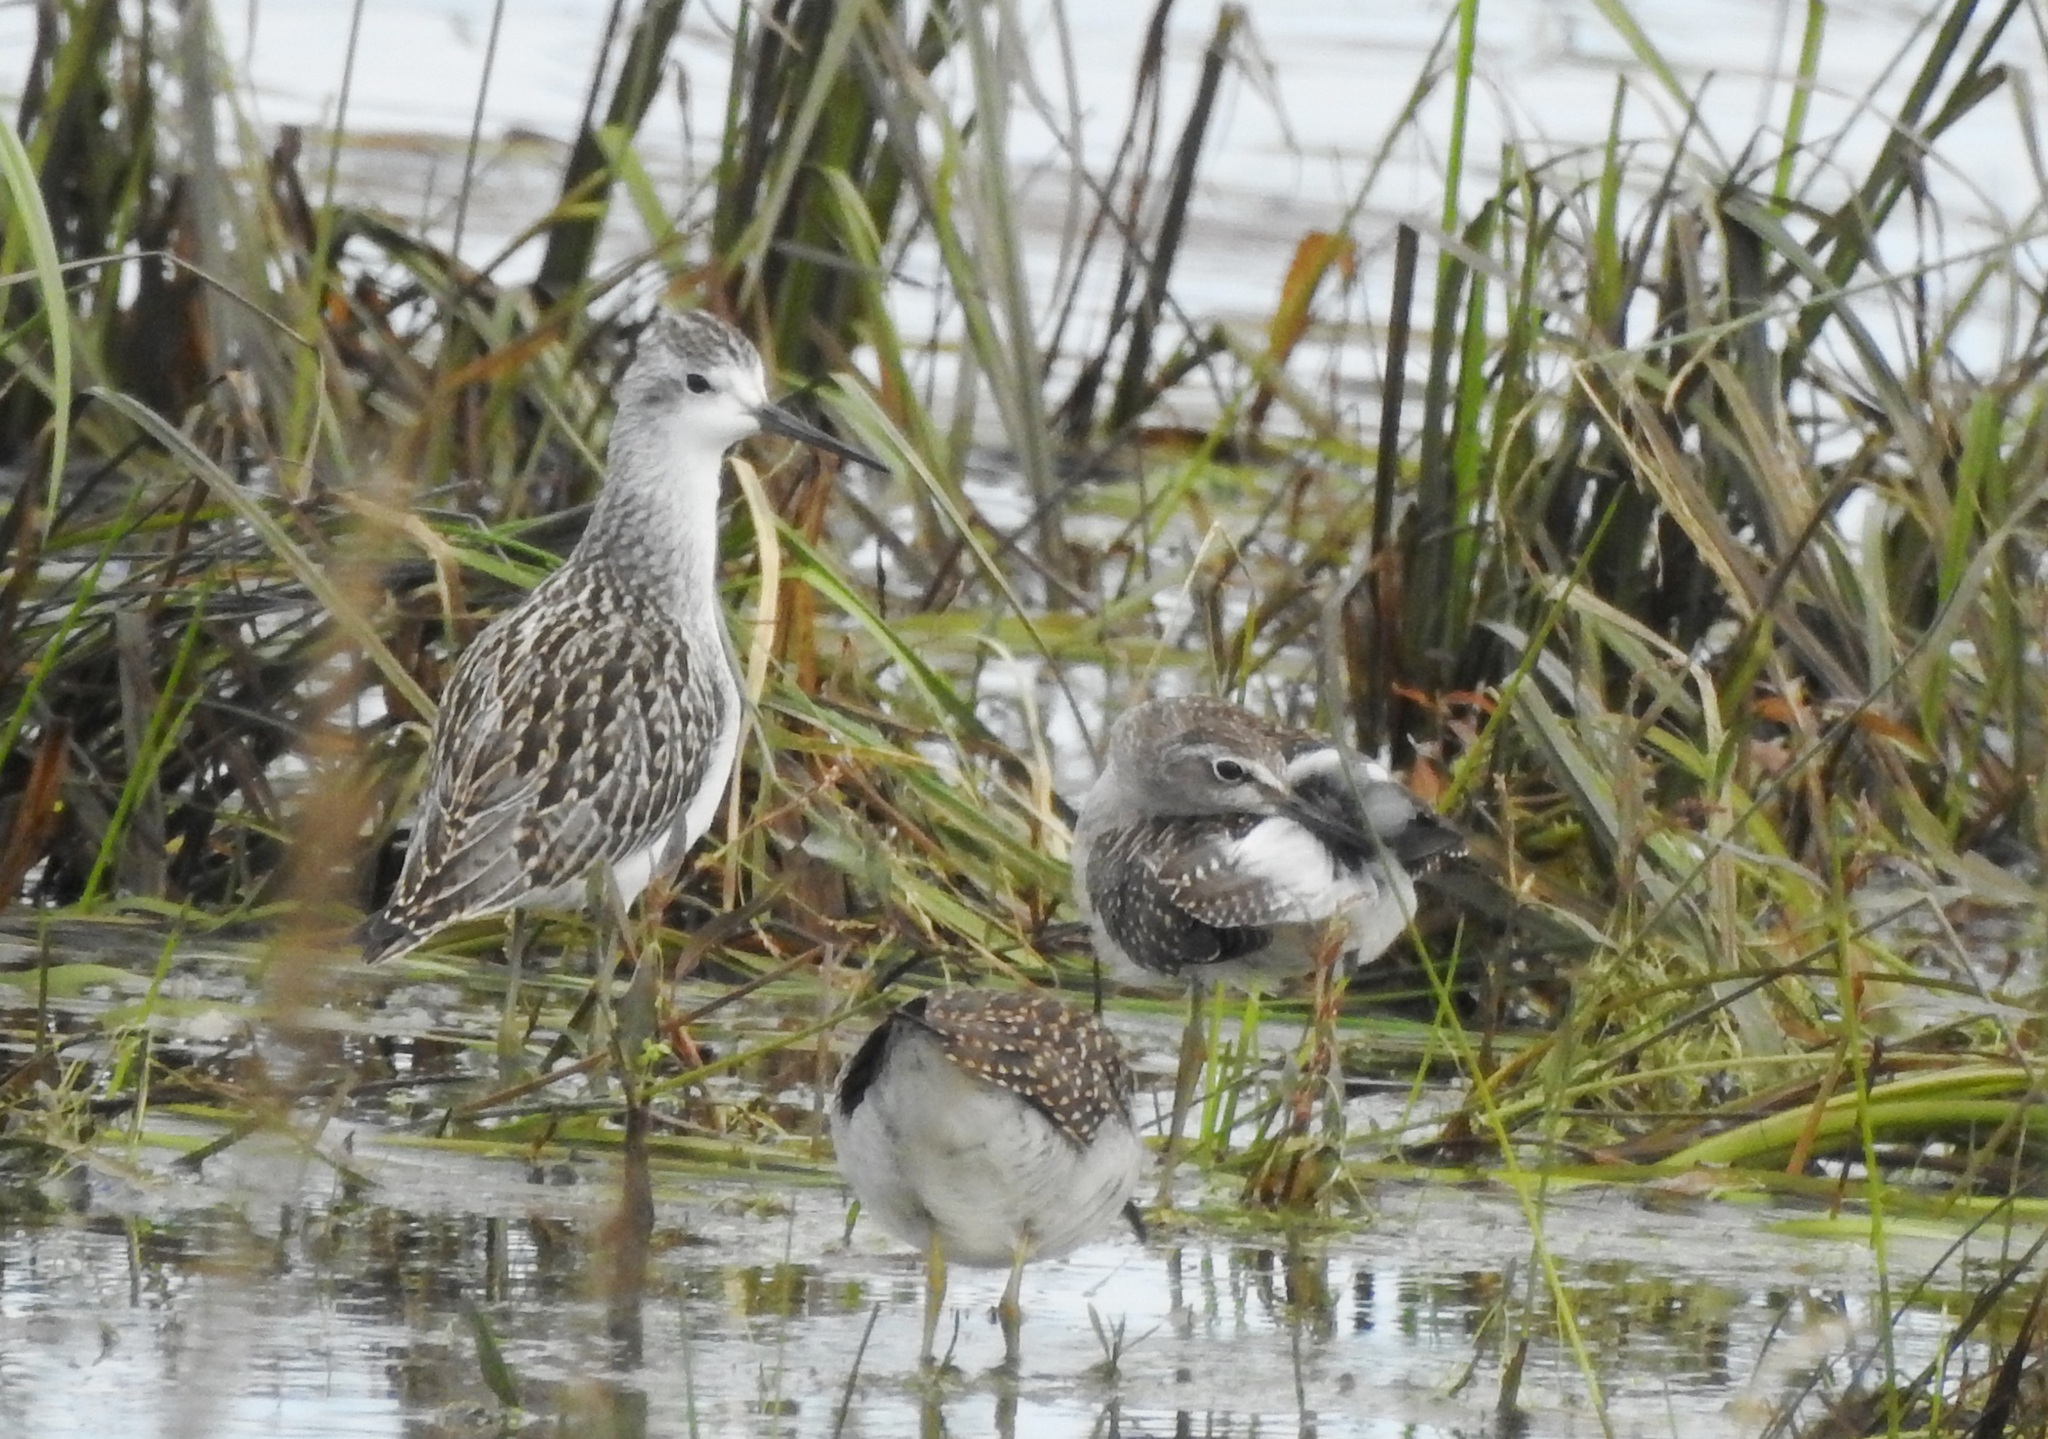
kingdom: Animalia
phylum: Chordata
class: Aves
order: Charadriiformes
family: Scolopacidae
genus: Tringa
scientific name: Tringa stagnatilis
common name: Marsh sandpiper
